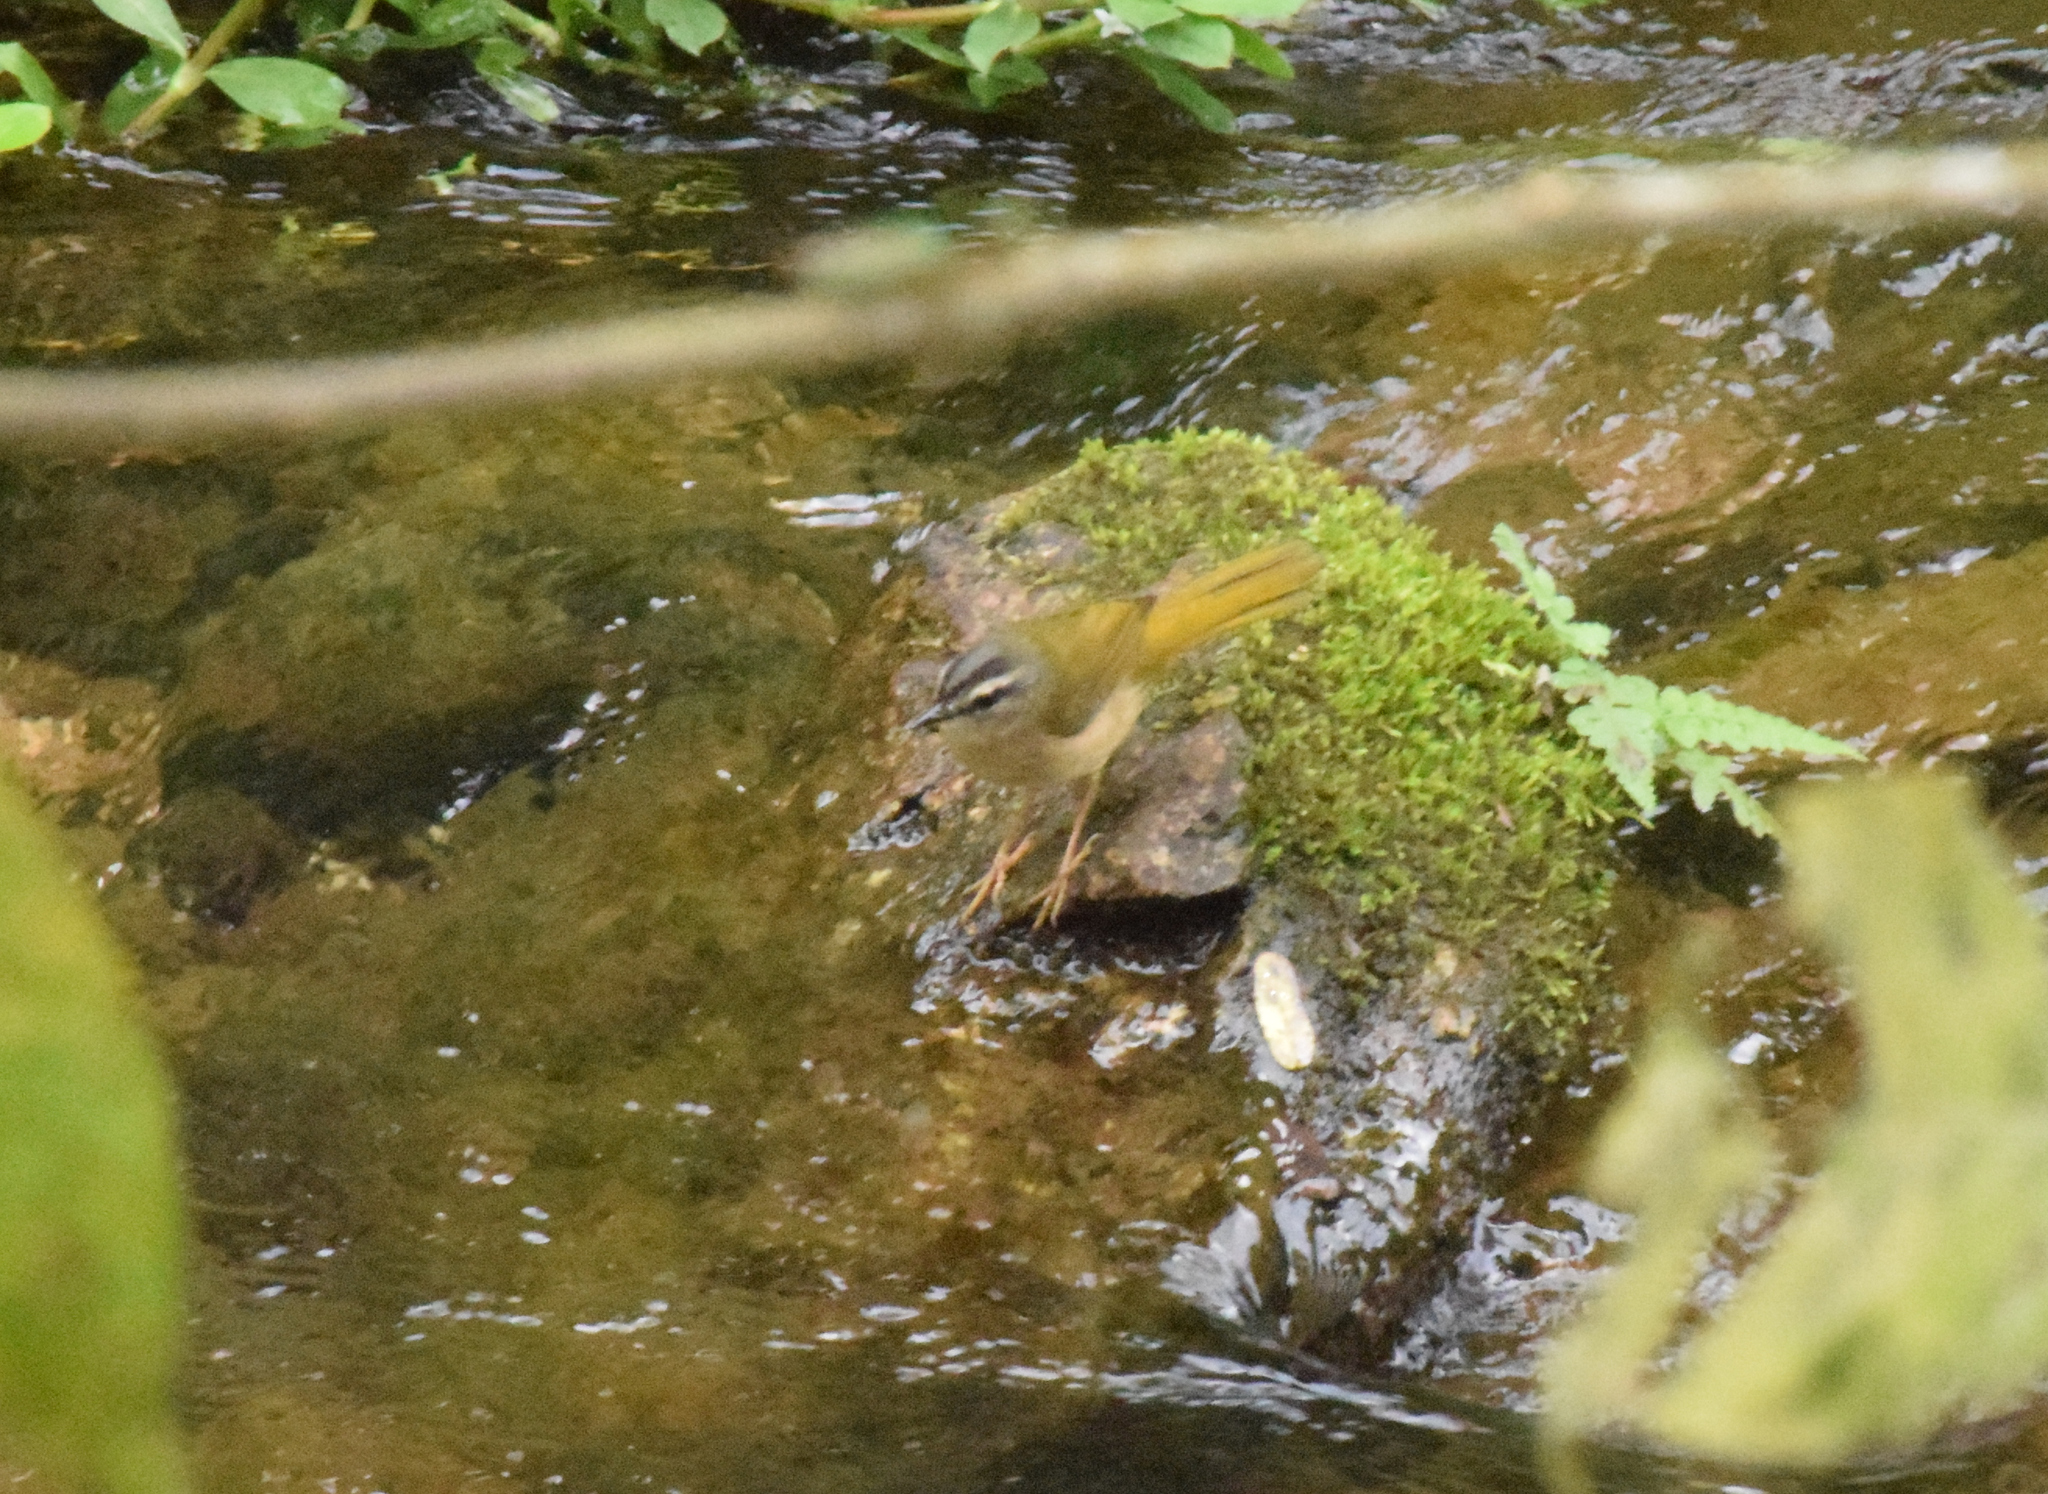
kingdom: Animalia
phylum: Chordata
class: Aves
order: Passeriformes
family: Parulidae
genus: Myiothlypis
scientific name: Myiothlypis rivularis
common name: Riverbank warbler
